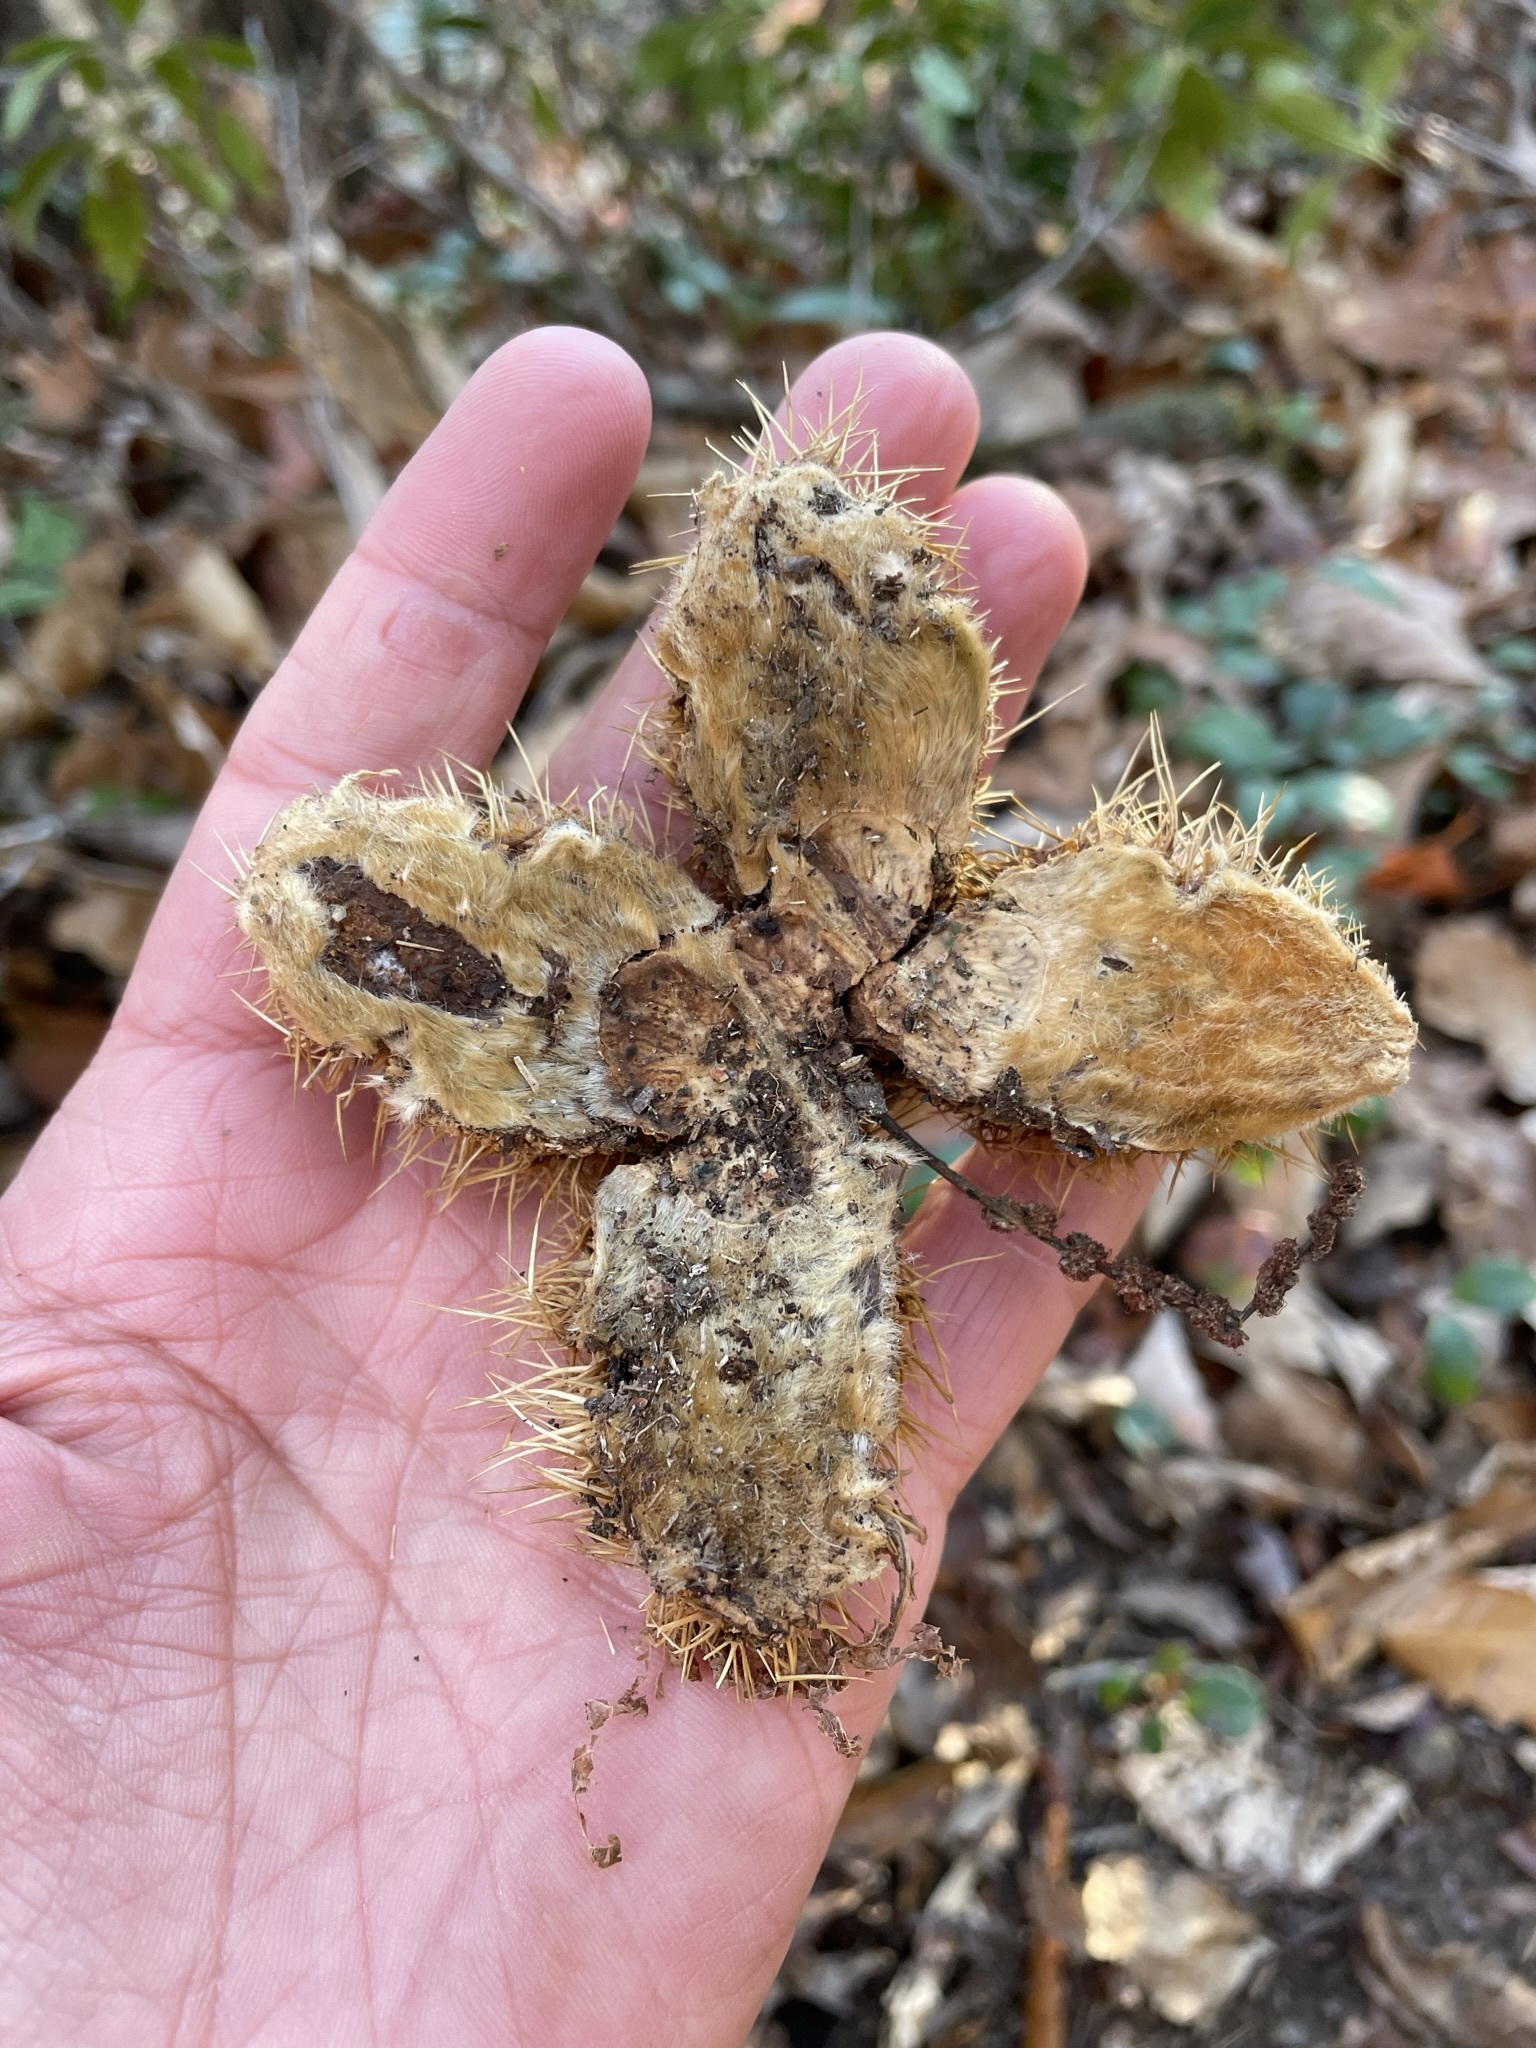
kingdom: Plantae
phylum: Tracheophyta
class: Magnoliopsida
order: Fagales
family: Fagaceae
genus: Castanea
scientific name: Castanea dentata
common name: American chestnut
